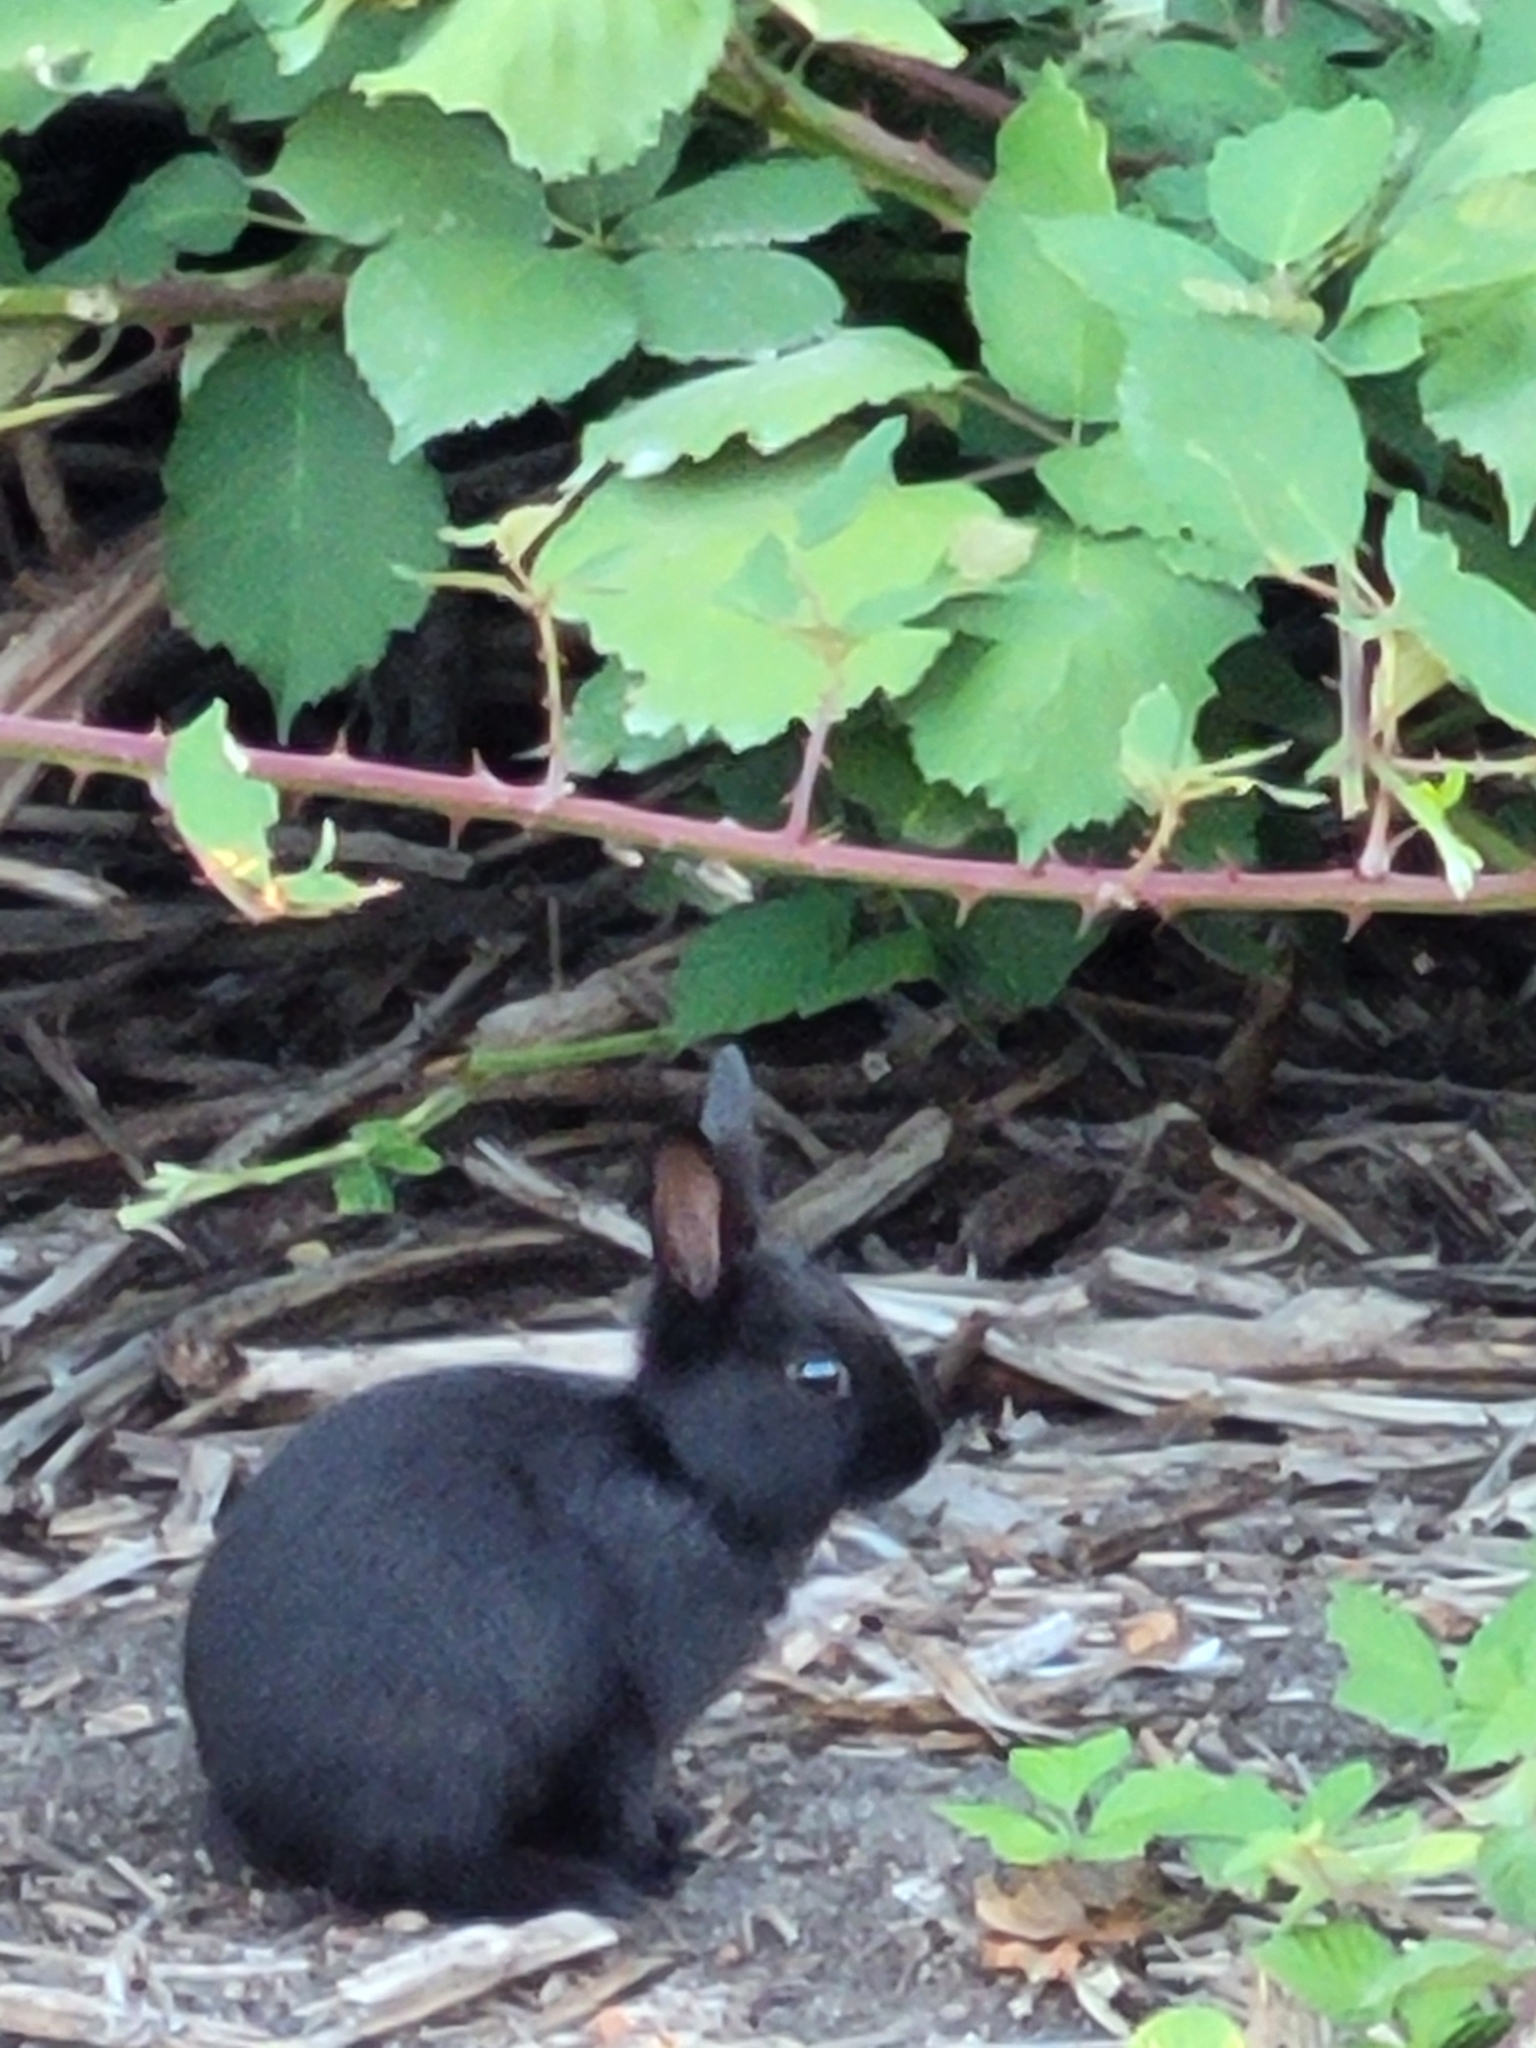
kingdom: Animalia
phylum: Chordata
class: Mammalia
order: Lagomorpha
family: Leporidae
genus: Oryctolagus
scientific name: Oryctolagus cuniculus
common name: European rabbit
